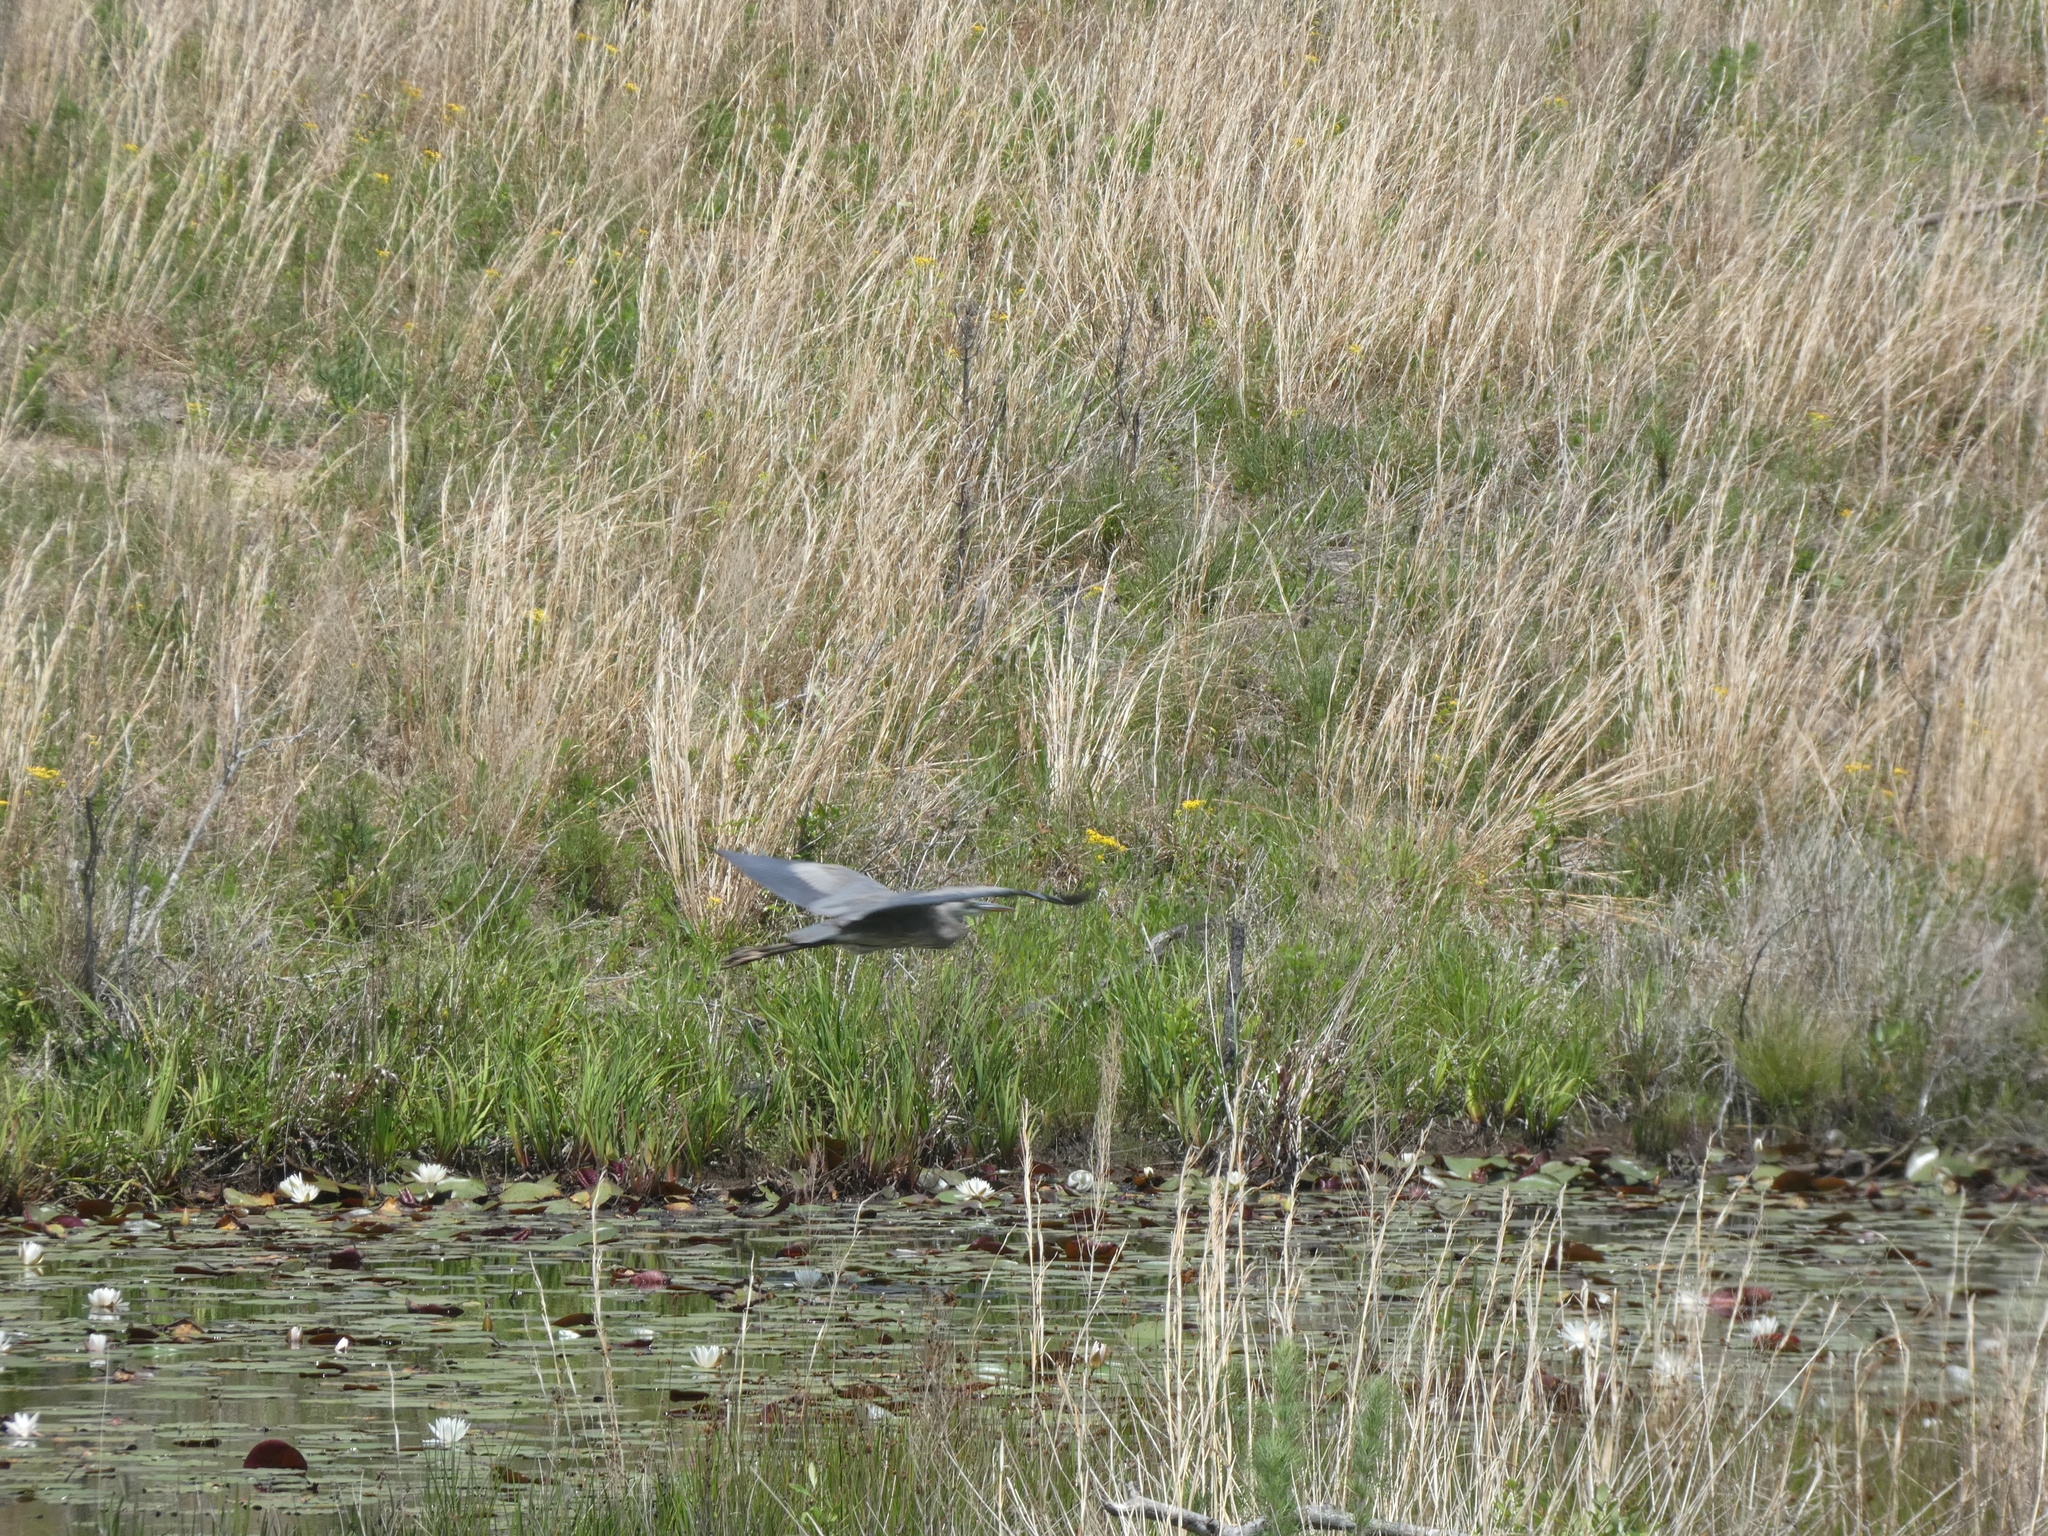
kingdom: Animalia
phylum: Chordata
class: Aves
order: Pelecaniformes
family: Ardeidae
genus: Ardea
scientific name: Ardea herodias
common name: Great blue heron
